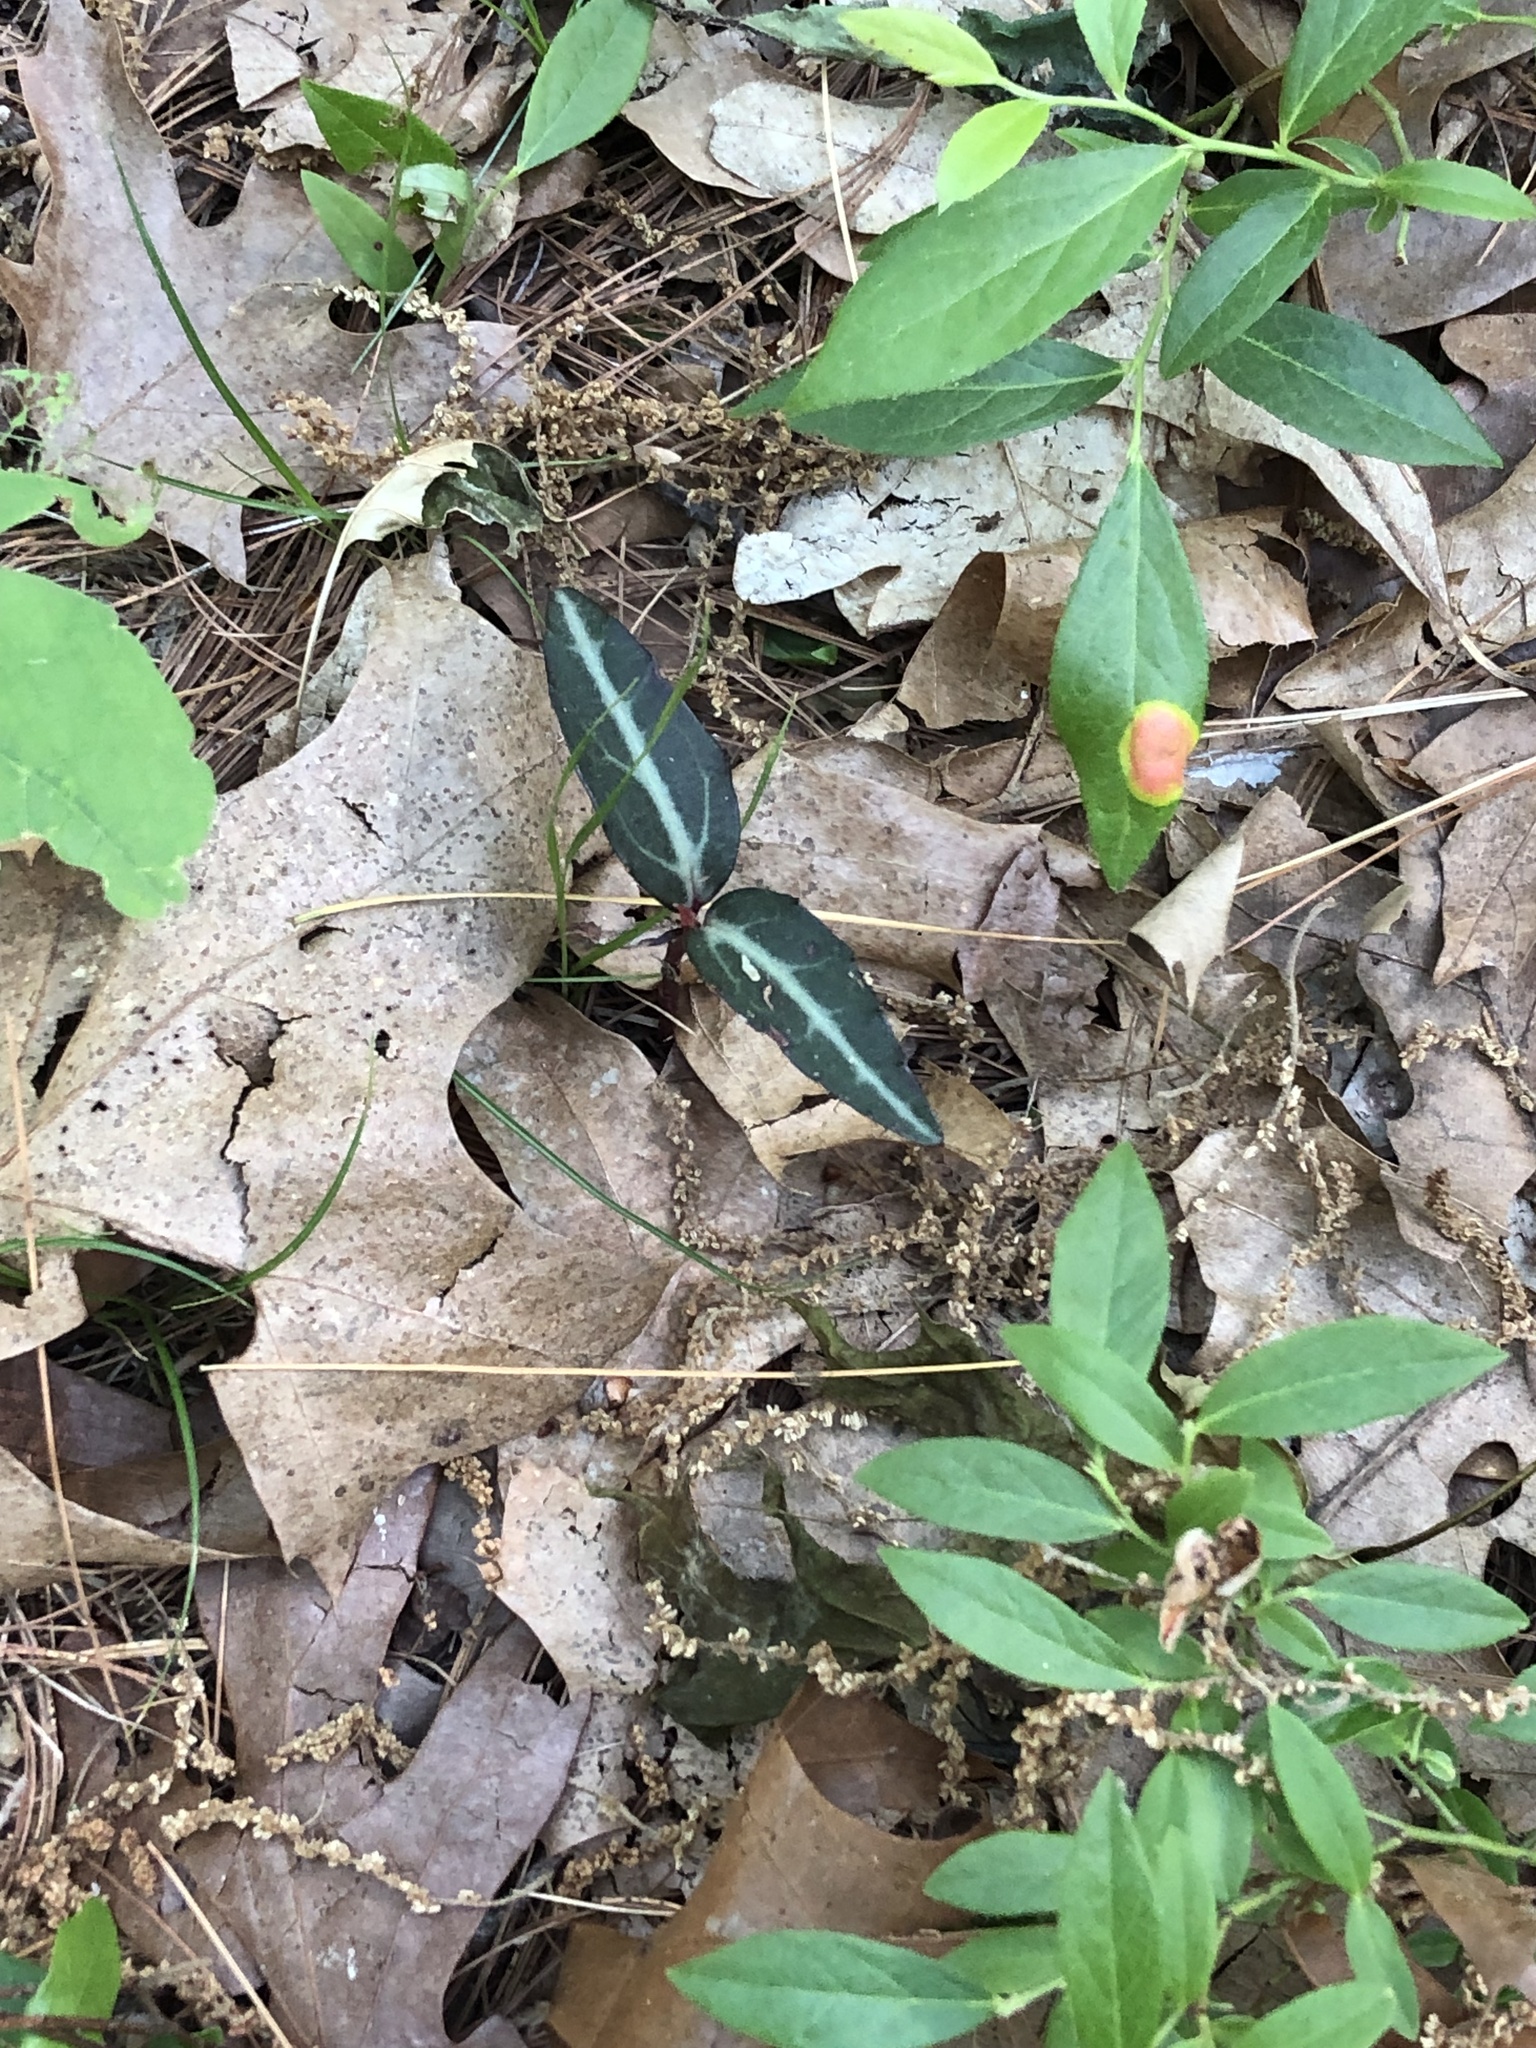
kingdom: Plantae
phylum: Tracheophyta
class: Magnoliopsida
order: Ericales
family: Ericaceae
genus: Chimaphila
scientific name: Chimaphila maculata
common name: Spotted pipsissewa
